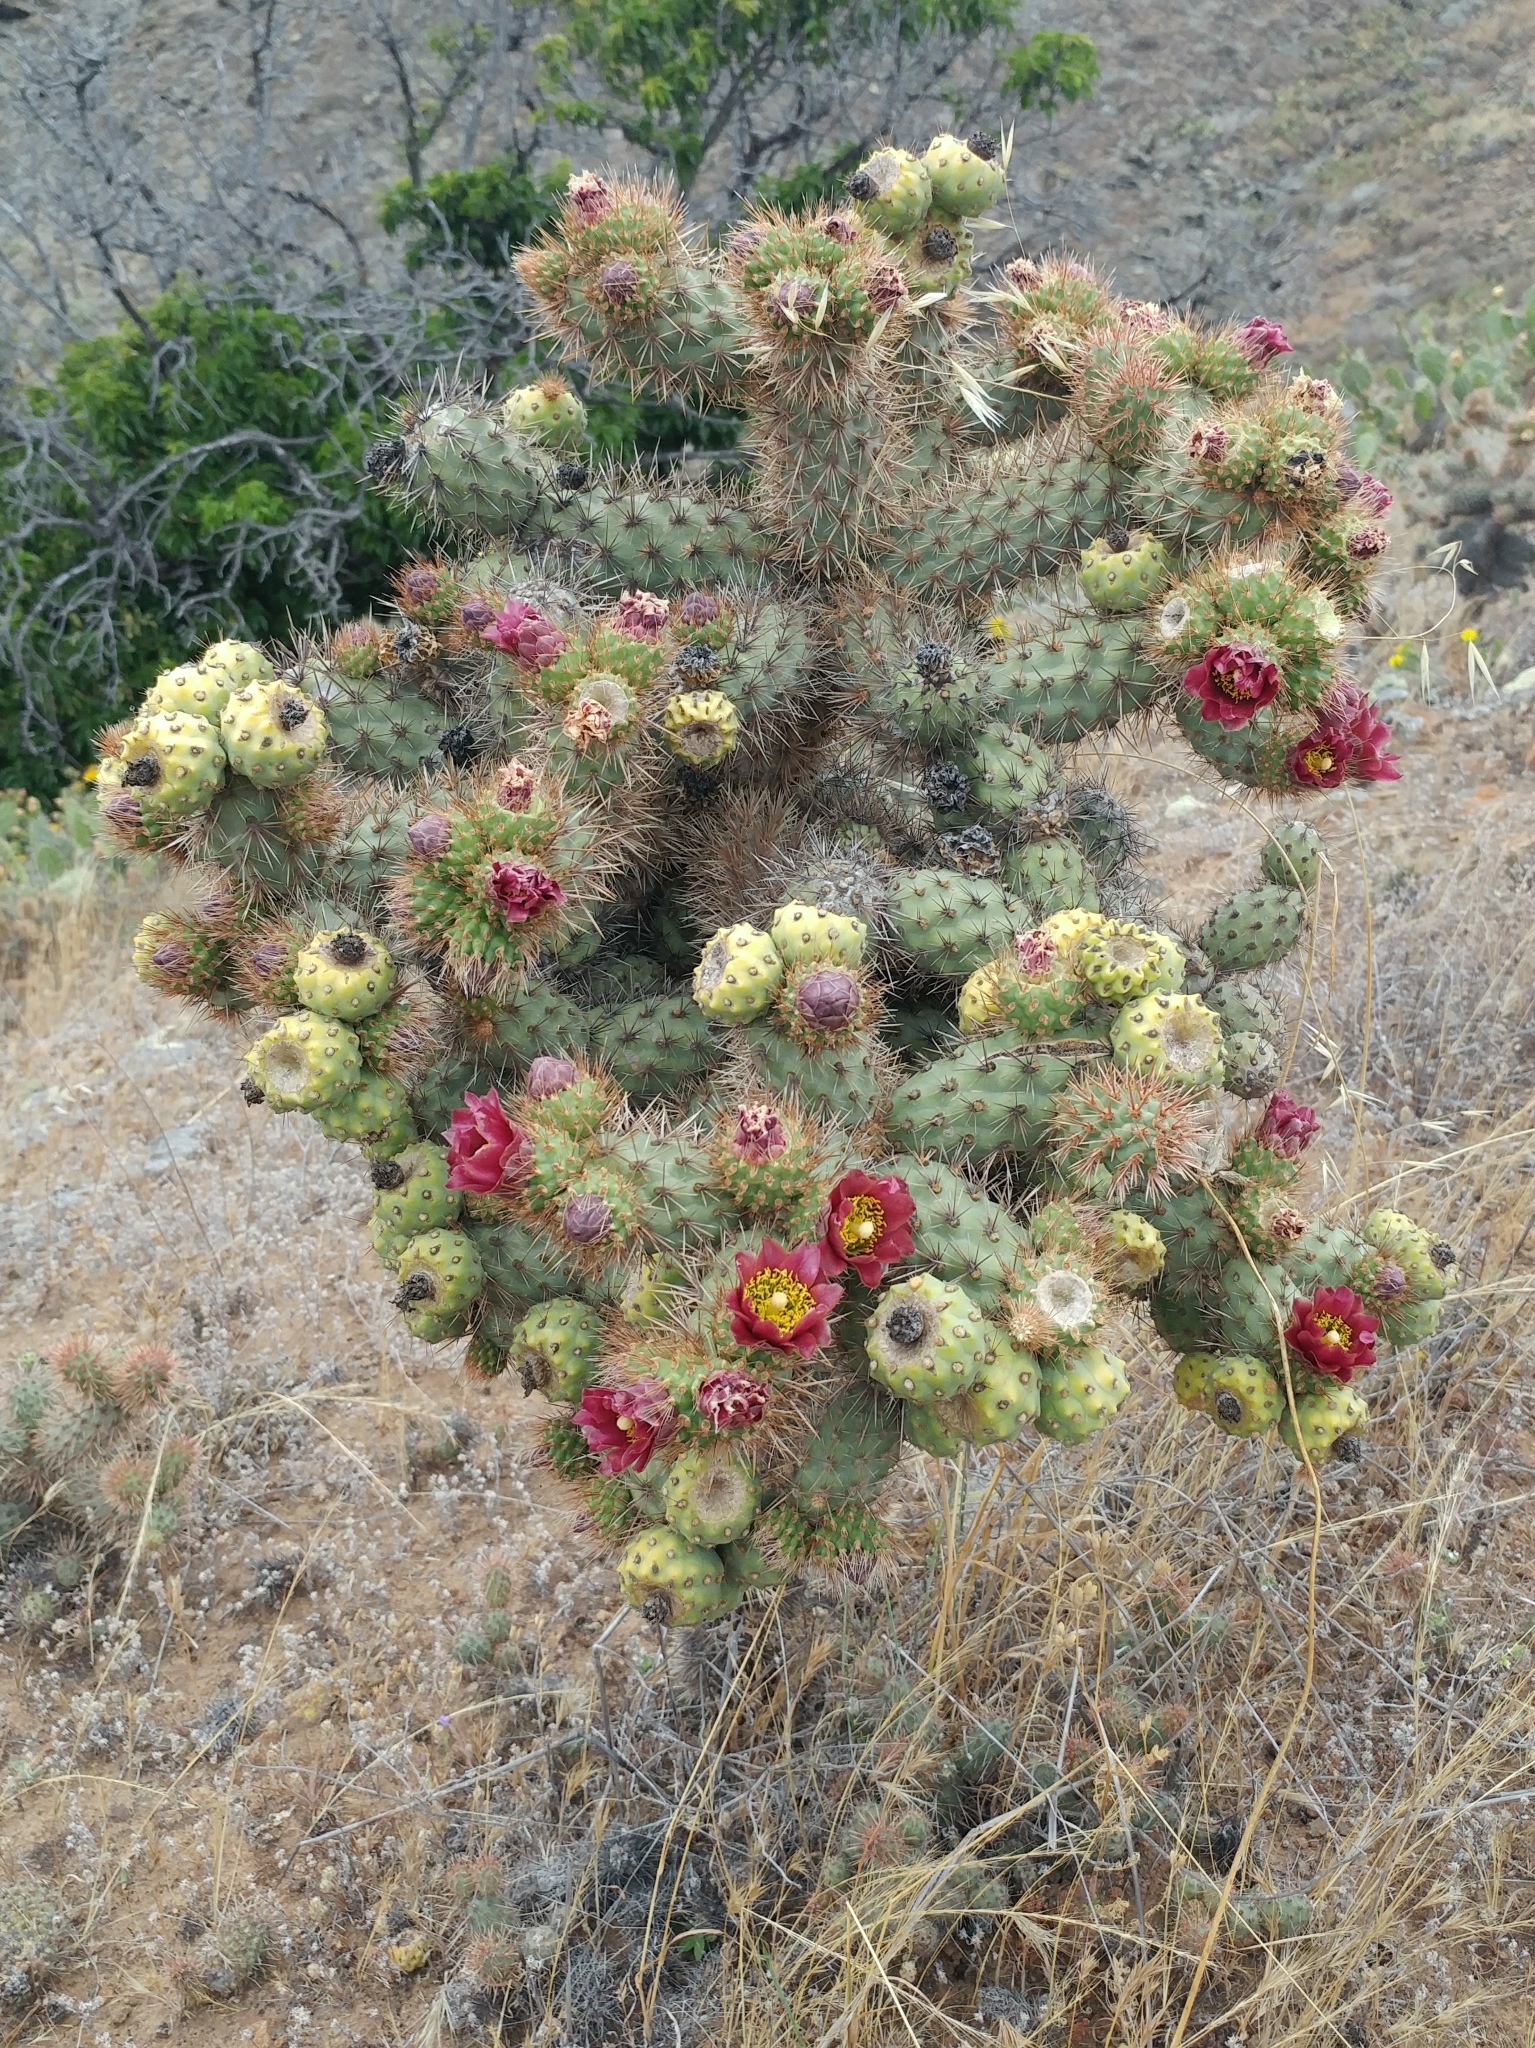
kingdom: Plantae
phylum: Tracheophyta
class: Magnoliopsida
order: Caryophyllales
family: Cactaceae
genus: Cylindropuntia
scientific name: Cylindropuntia prolifera
